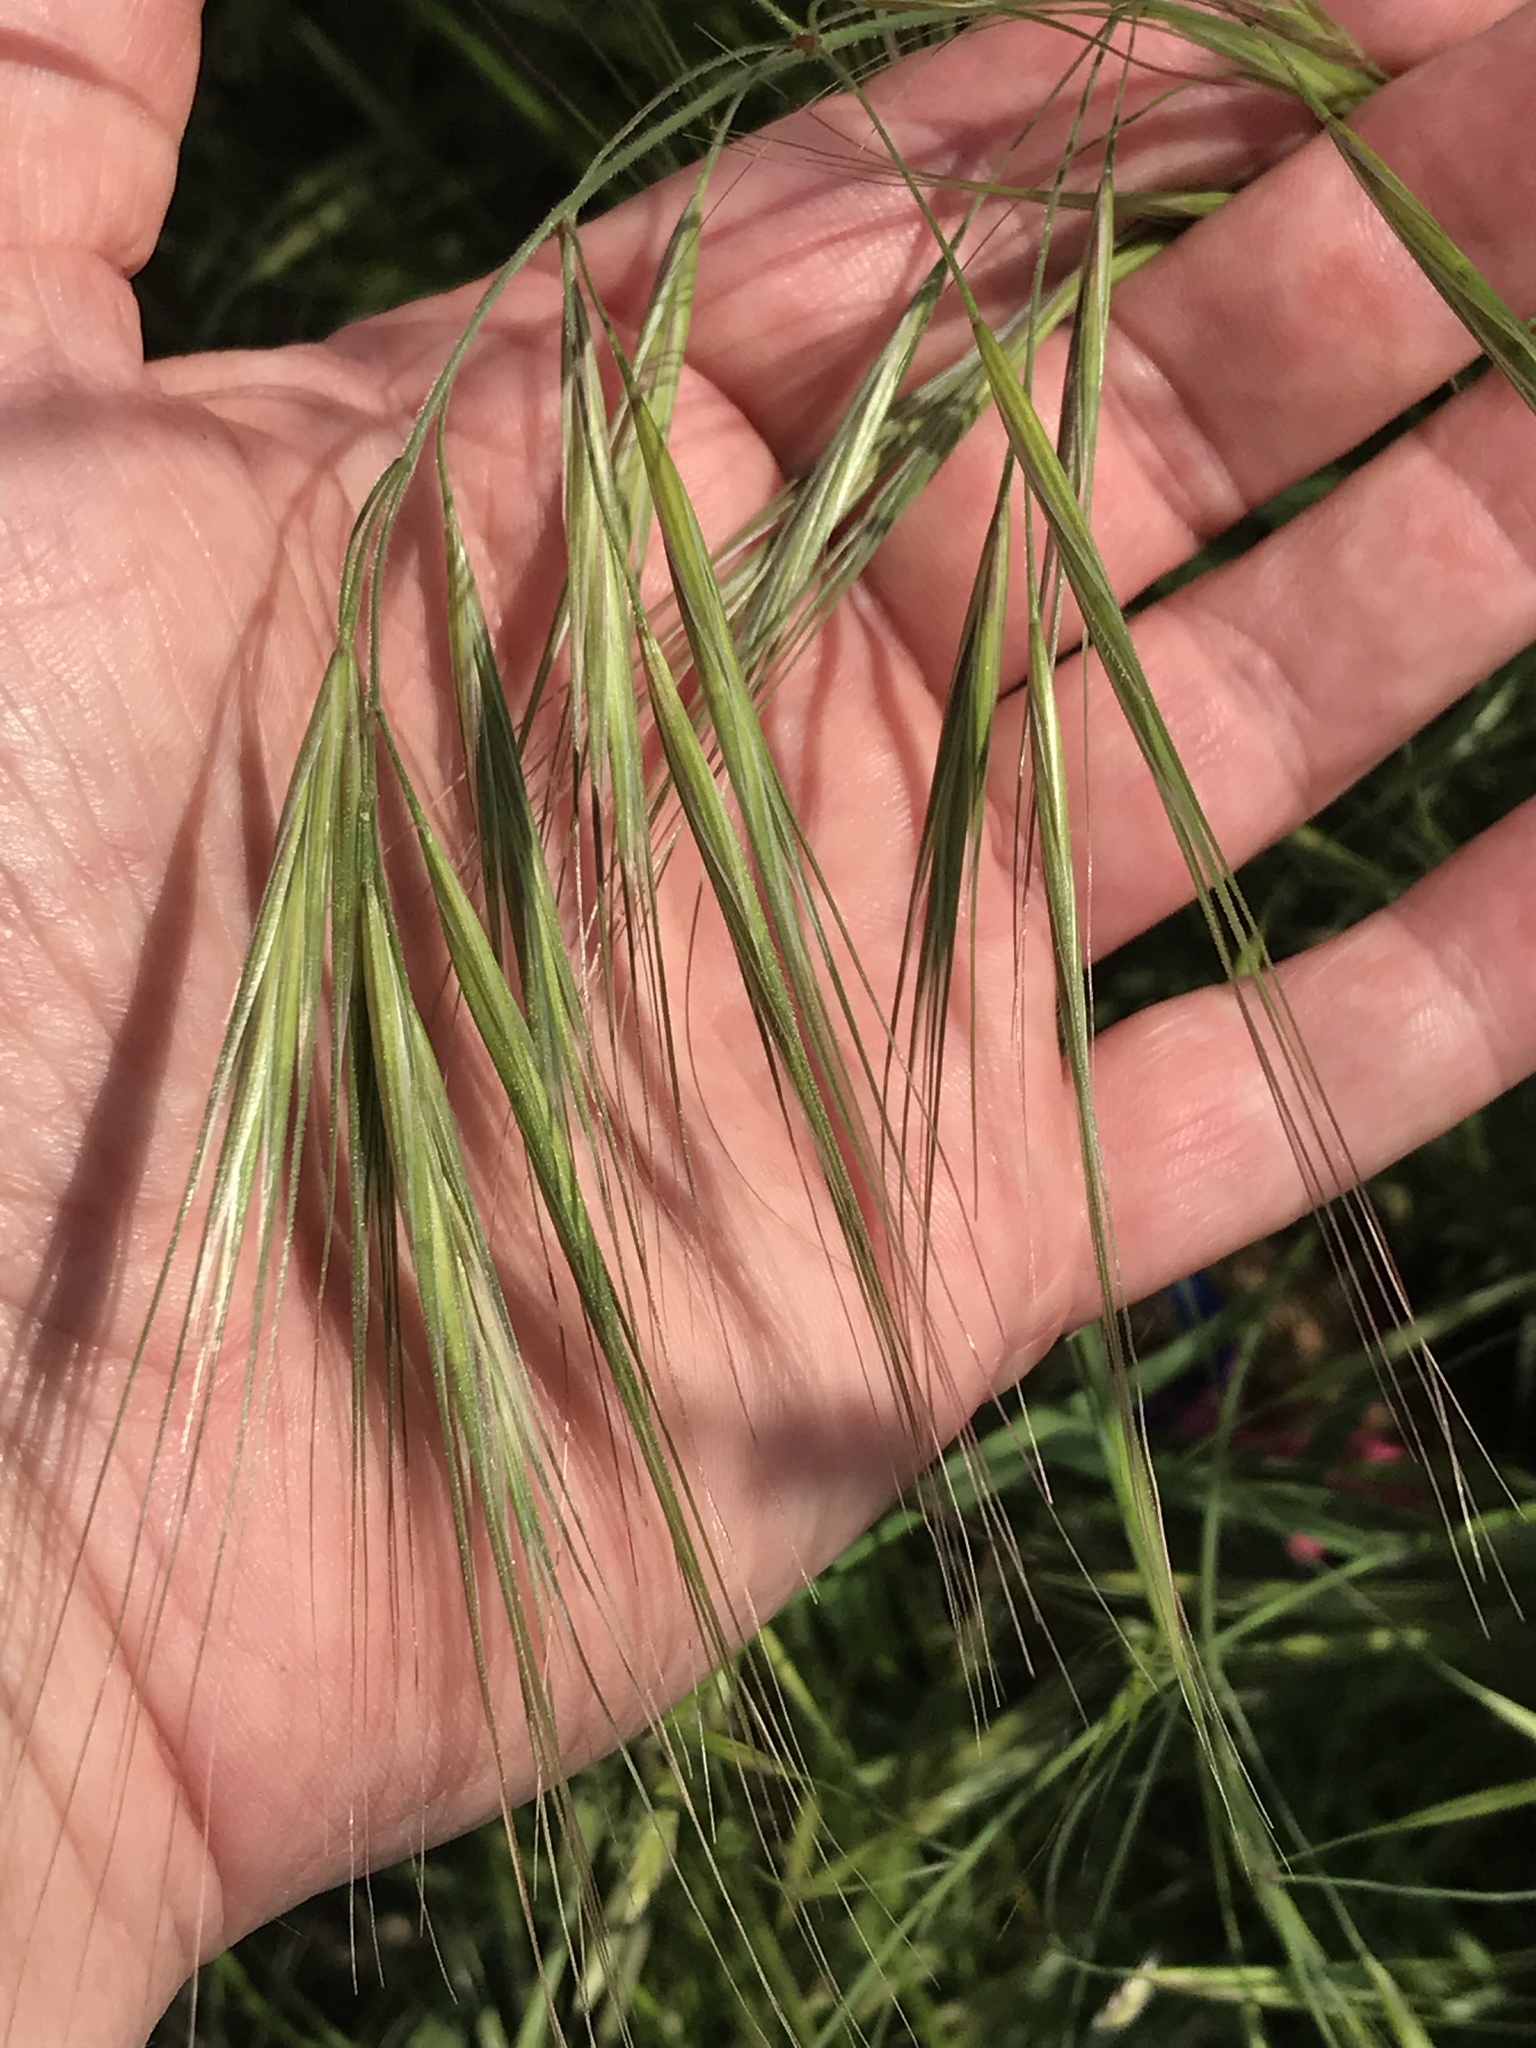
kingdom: Plantae
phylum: Tracheophyta
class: Liliopsida
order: Poales
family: Poaceae
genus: Bromus
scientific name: Bromus diandrus
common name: Ripgut brome
